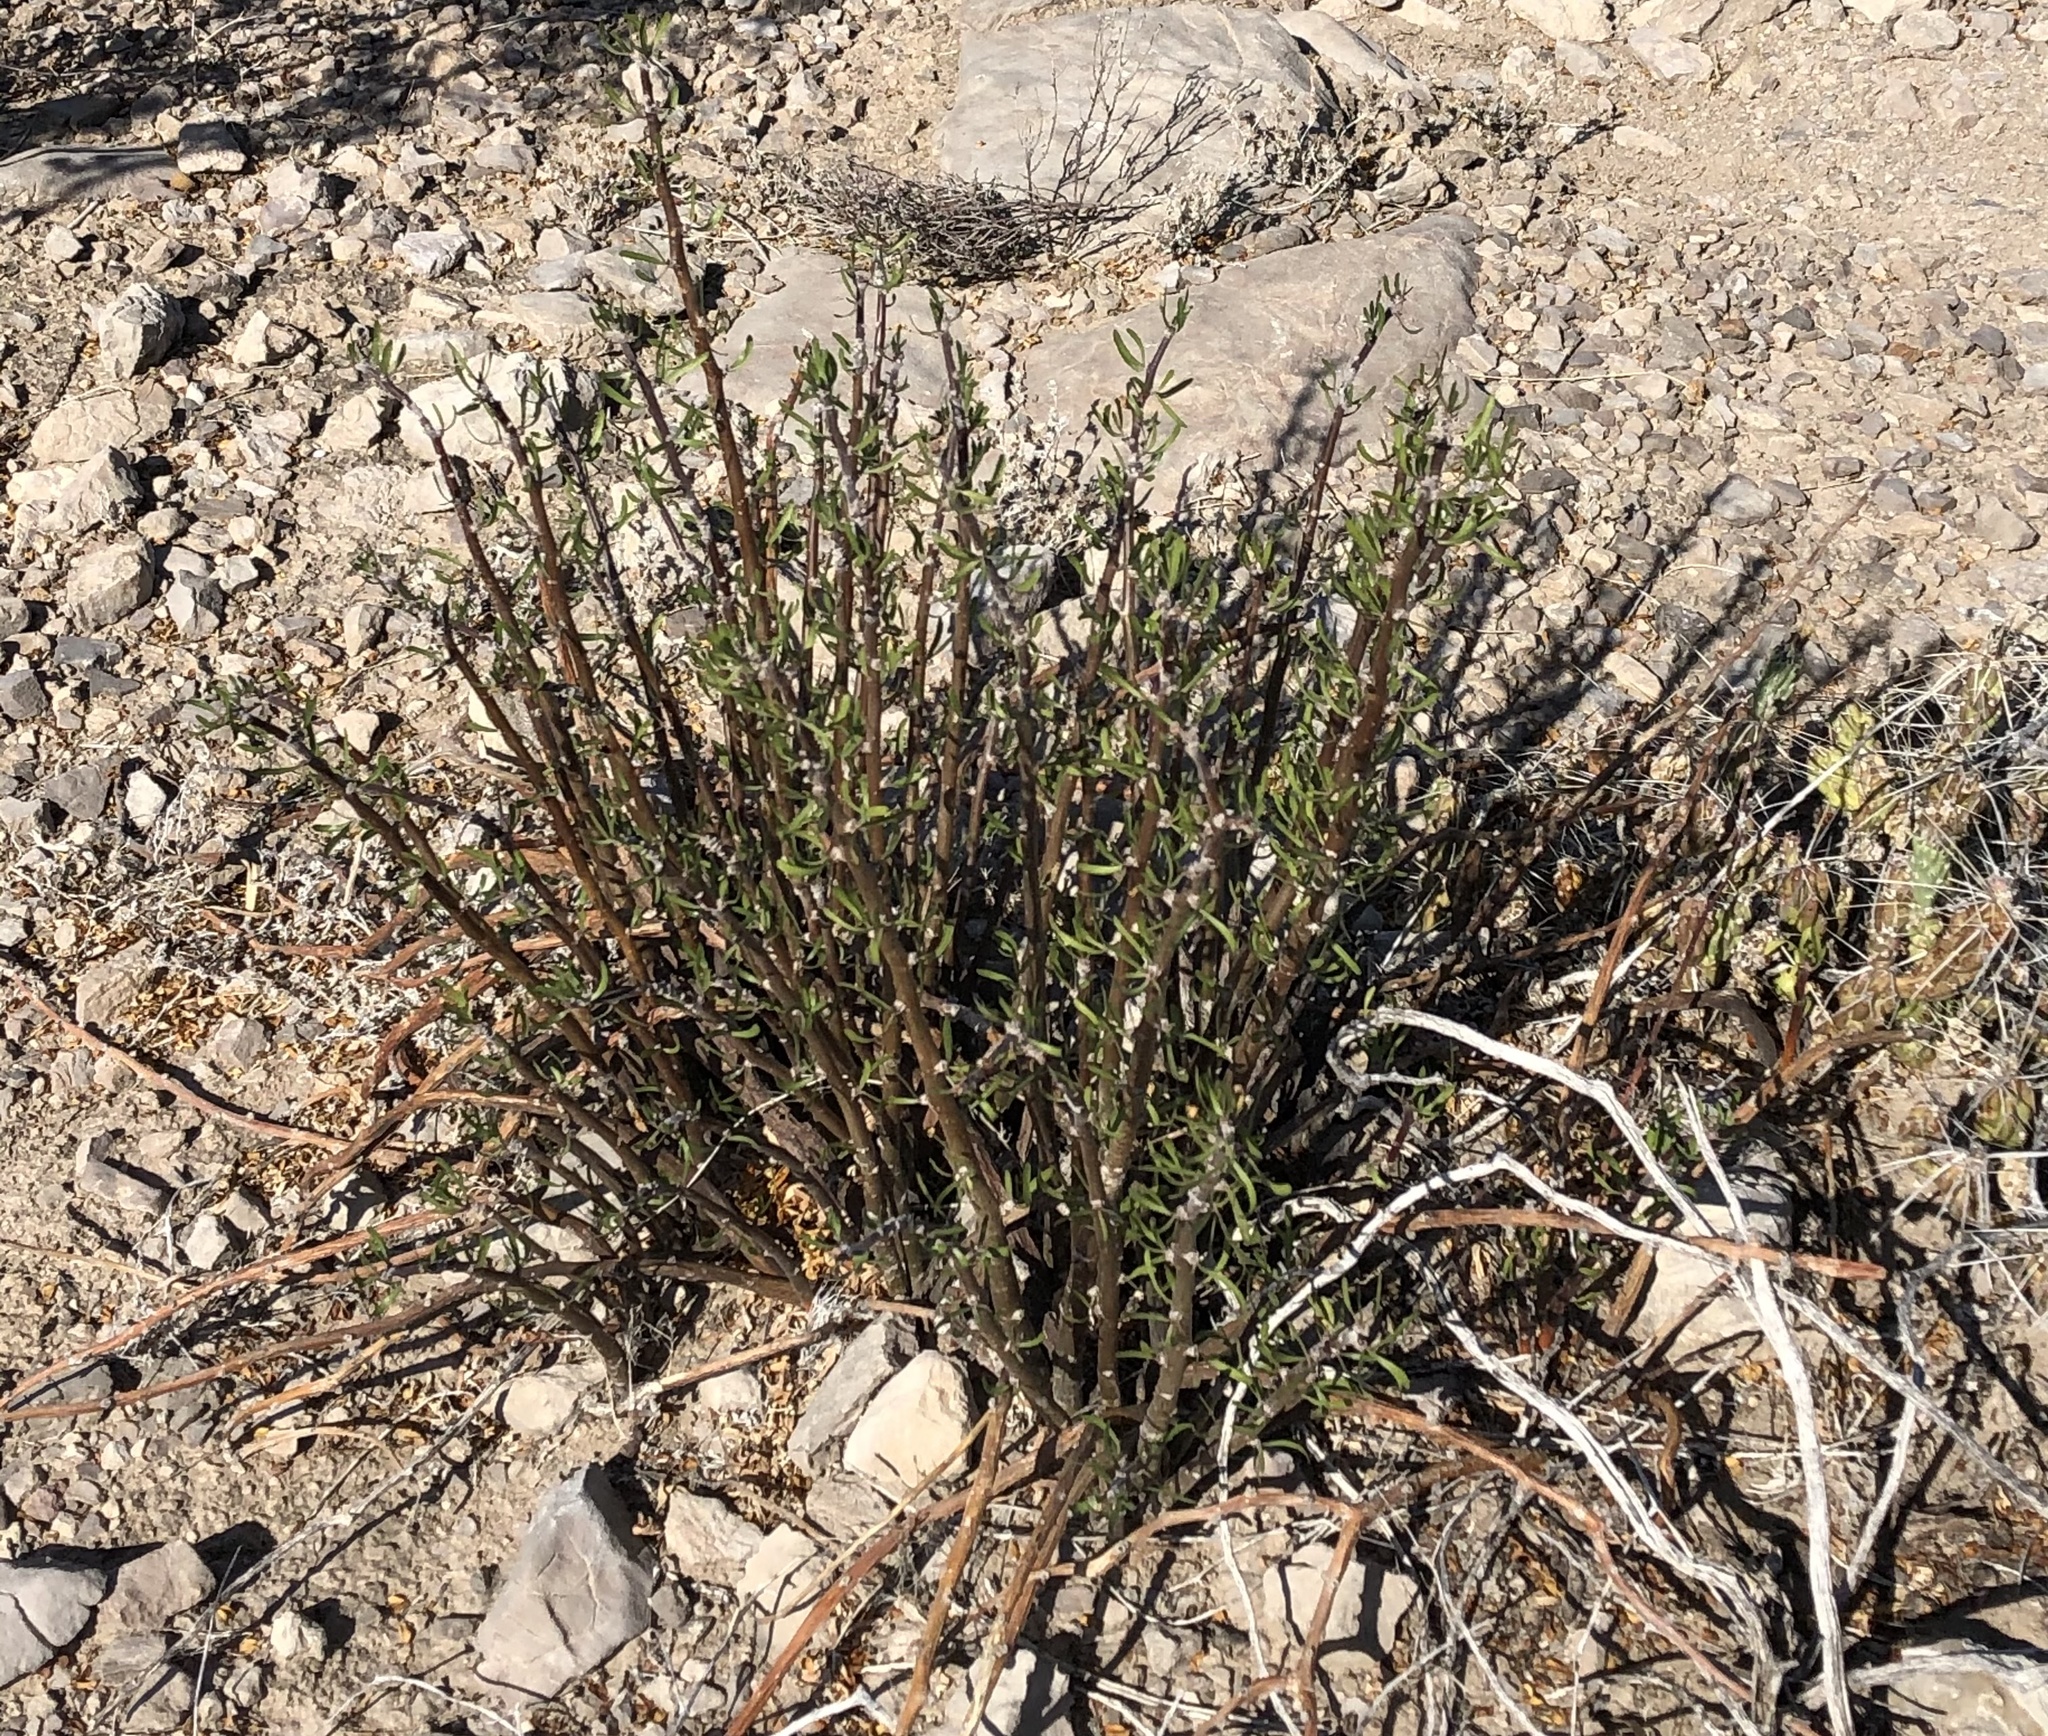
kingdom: Plantae
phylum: Tracheophyta
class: Magnoliopsida
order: Malpighiales
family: Euphorbiaceae
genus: Jatropha
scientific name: Jatropha dioica
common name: Leatherstem
